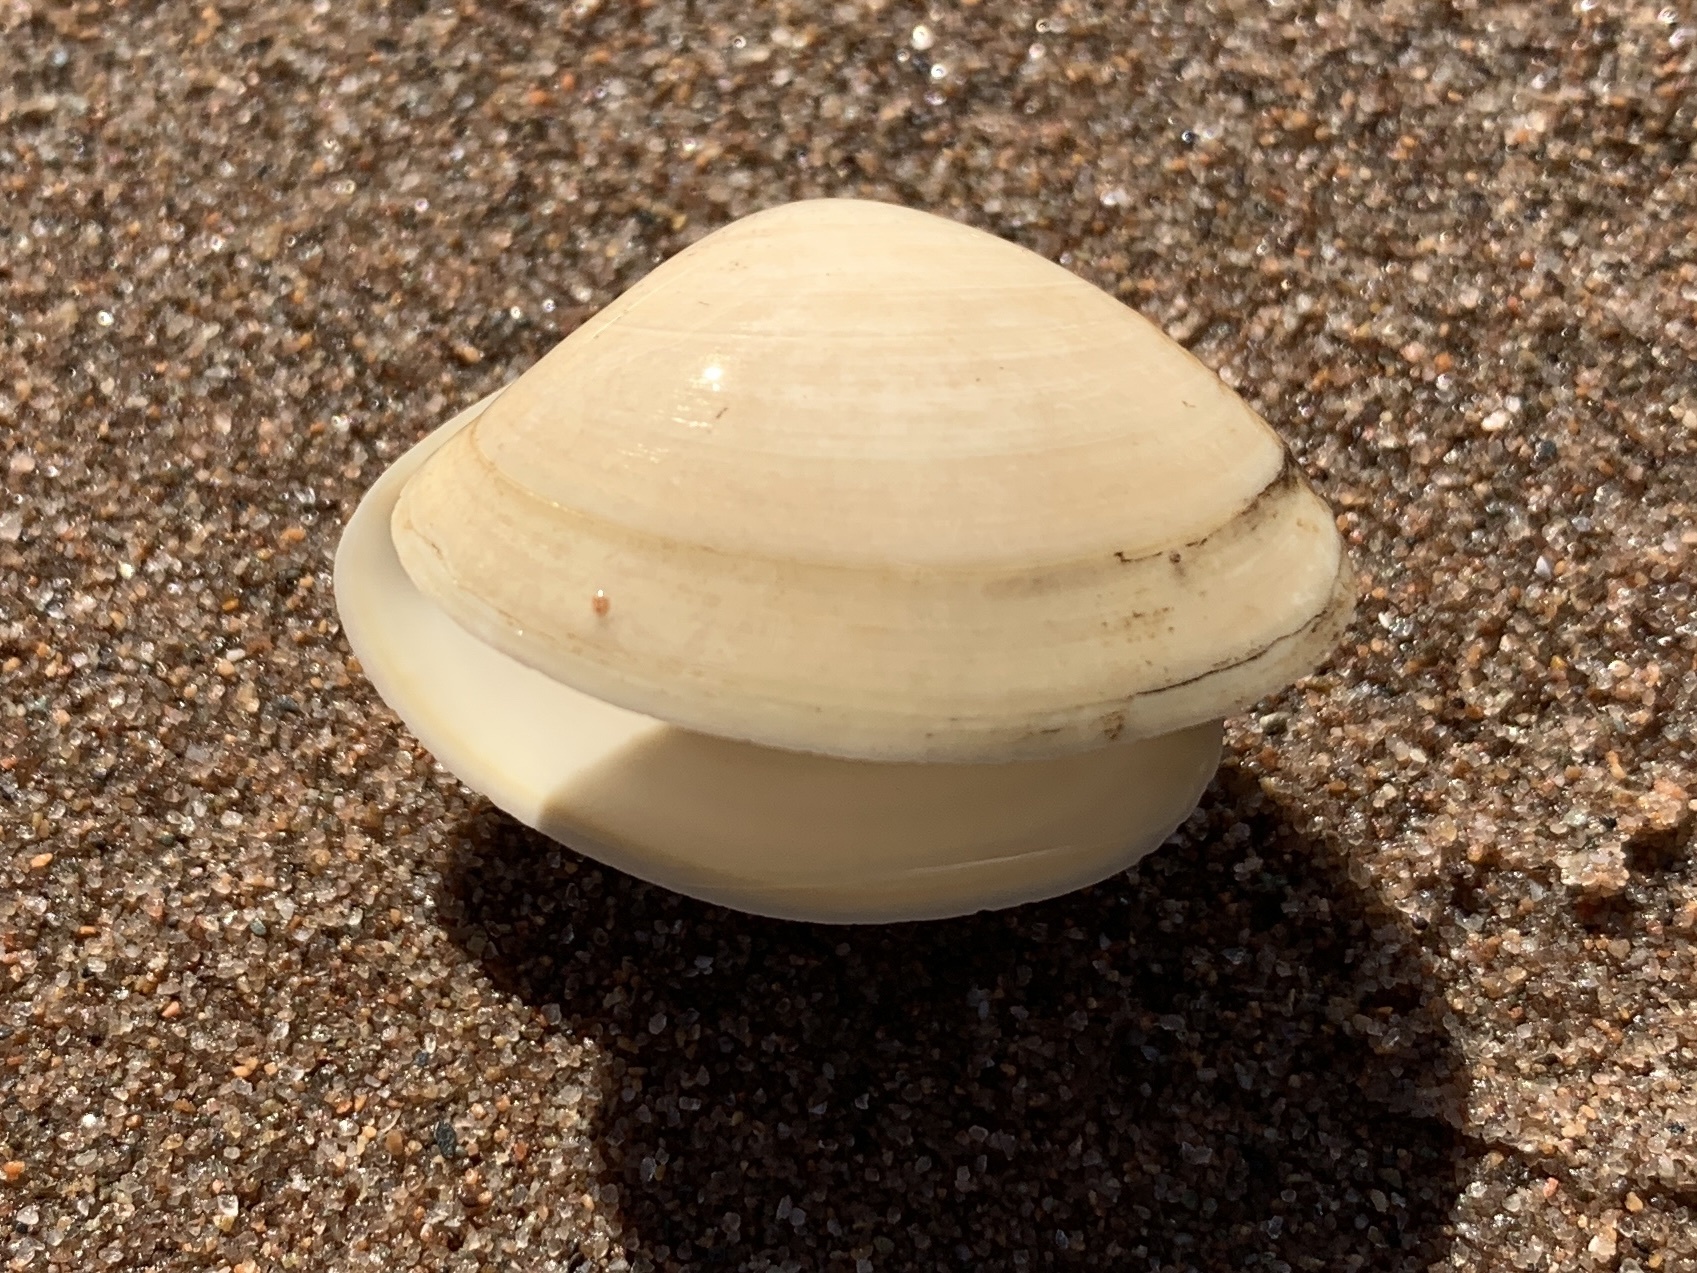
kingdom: Animalia
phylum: Mollusca
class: Bivalvia
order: Venerida
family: Mactridae
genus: Spisula
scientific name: Spisula solidissima
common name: Atlantic surf clam
